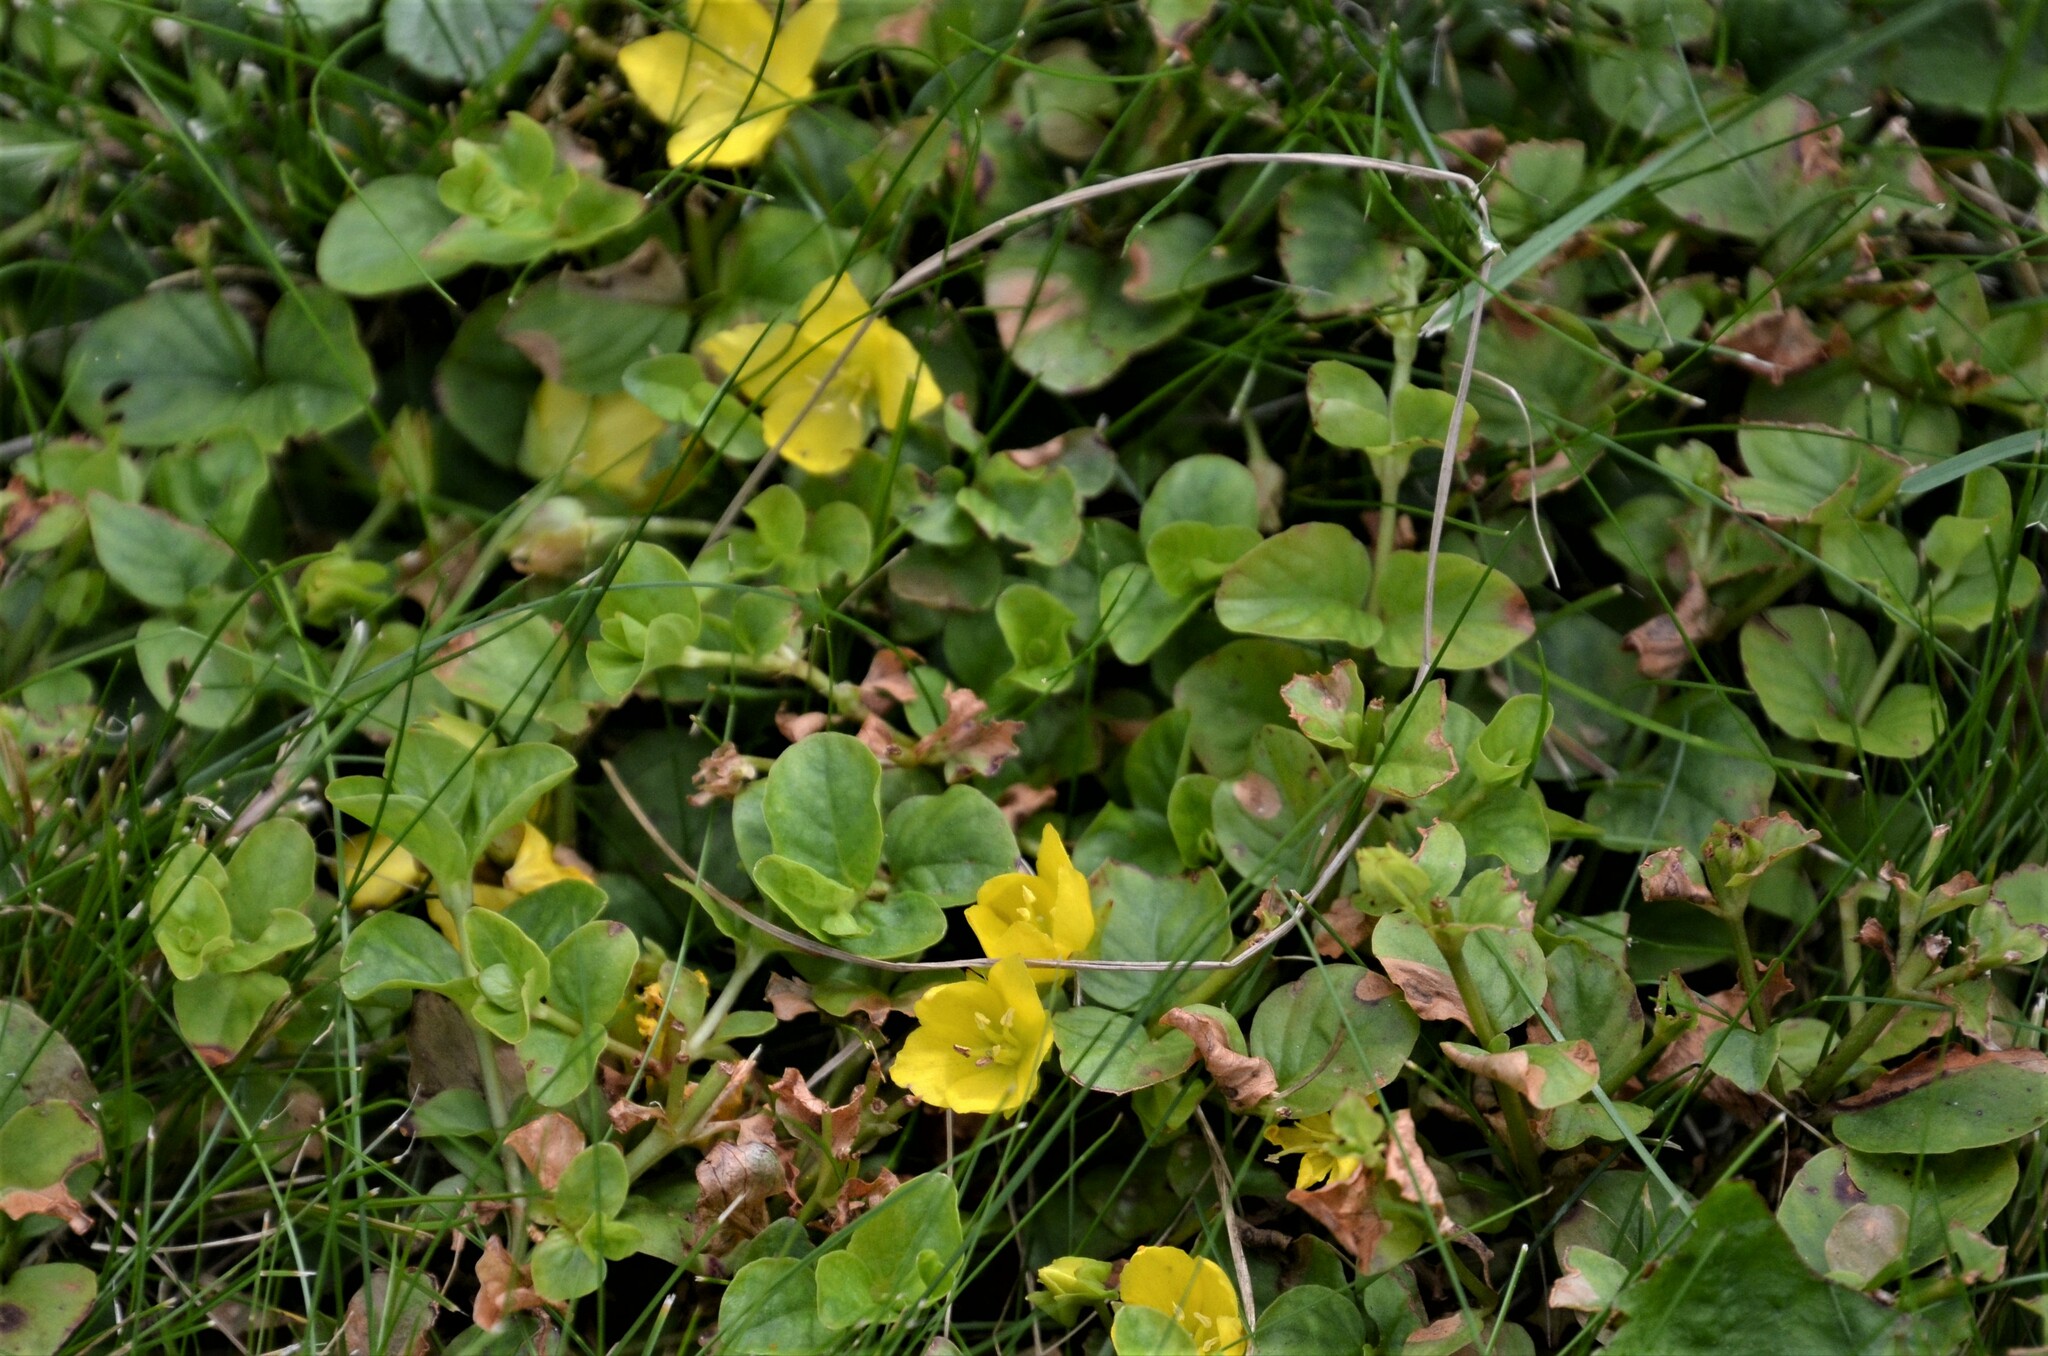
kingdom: Plantae
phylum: Tracheophyta
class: Magnoliopsida
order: Ericales
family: Primulaceae
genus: Lysimachia
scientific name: Lysimachia nummularia
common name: Moneywort
